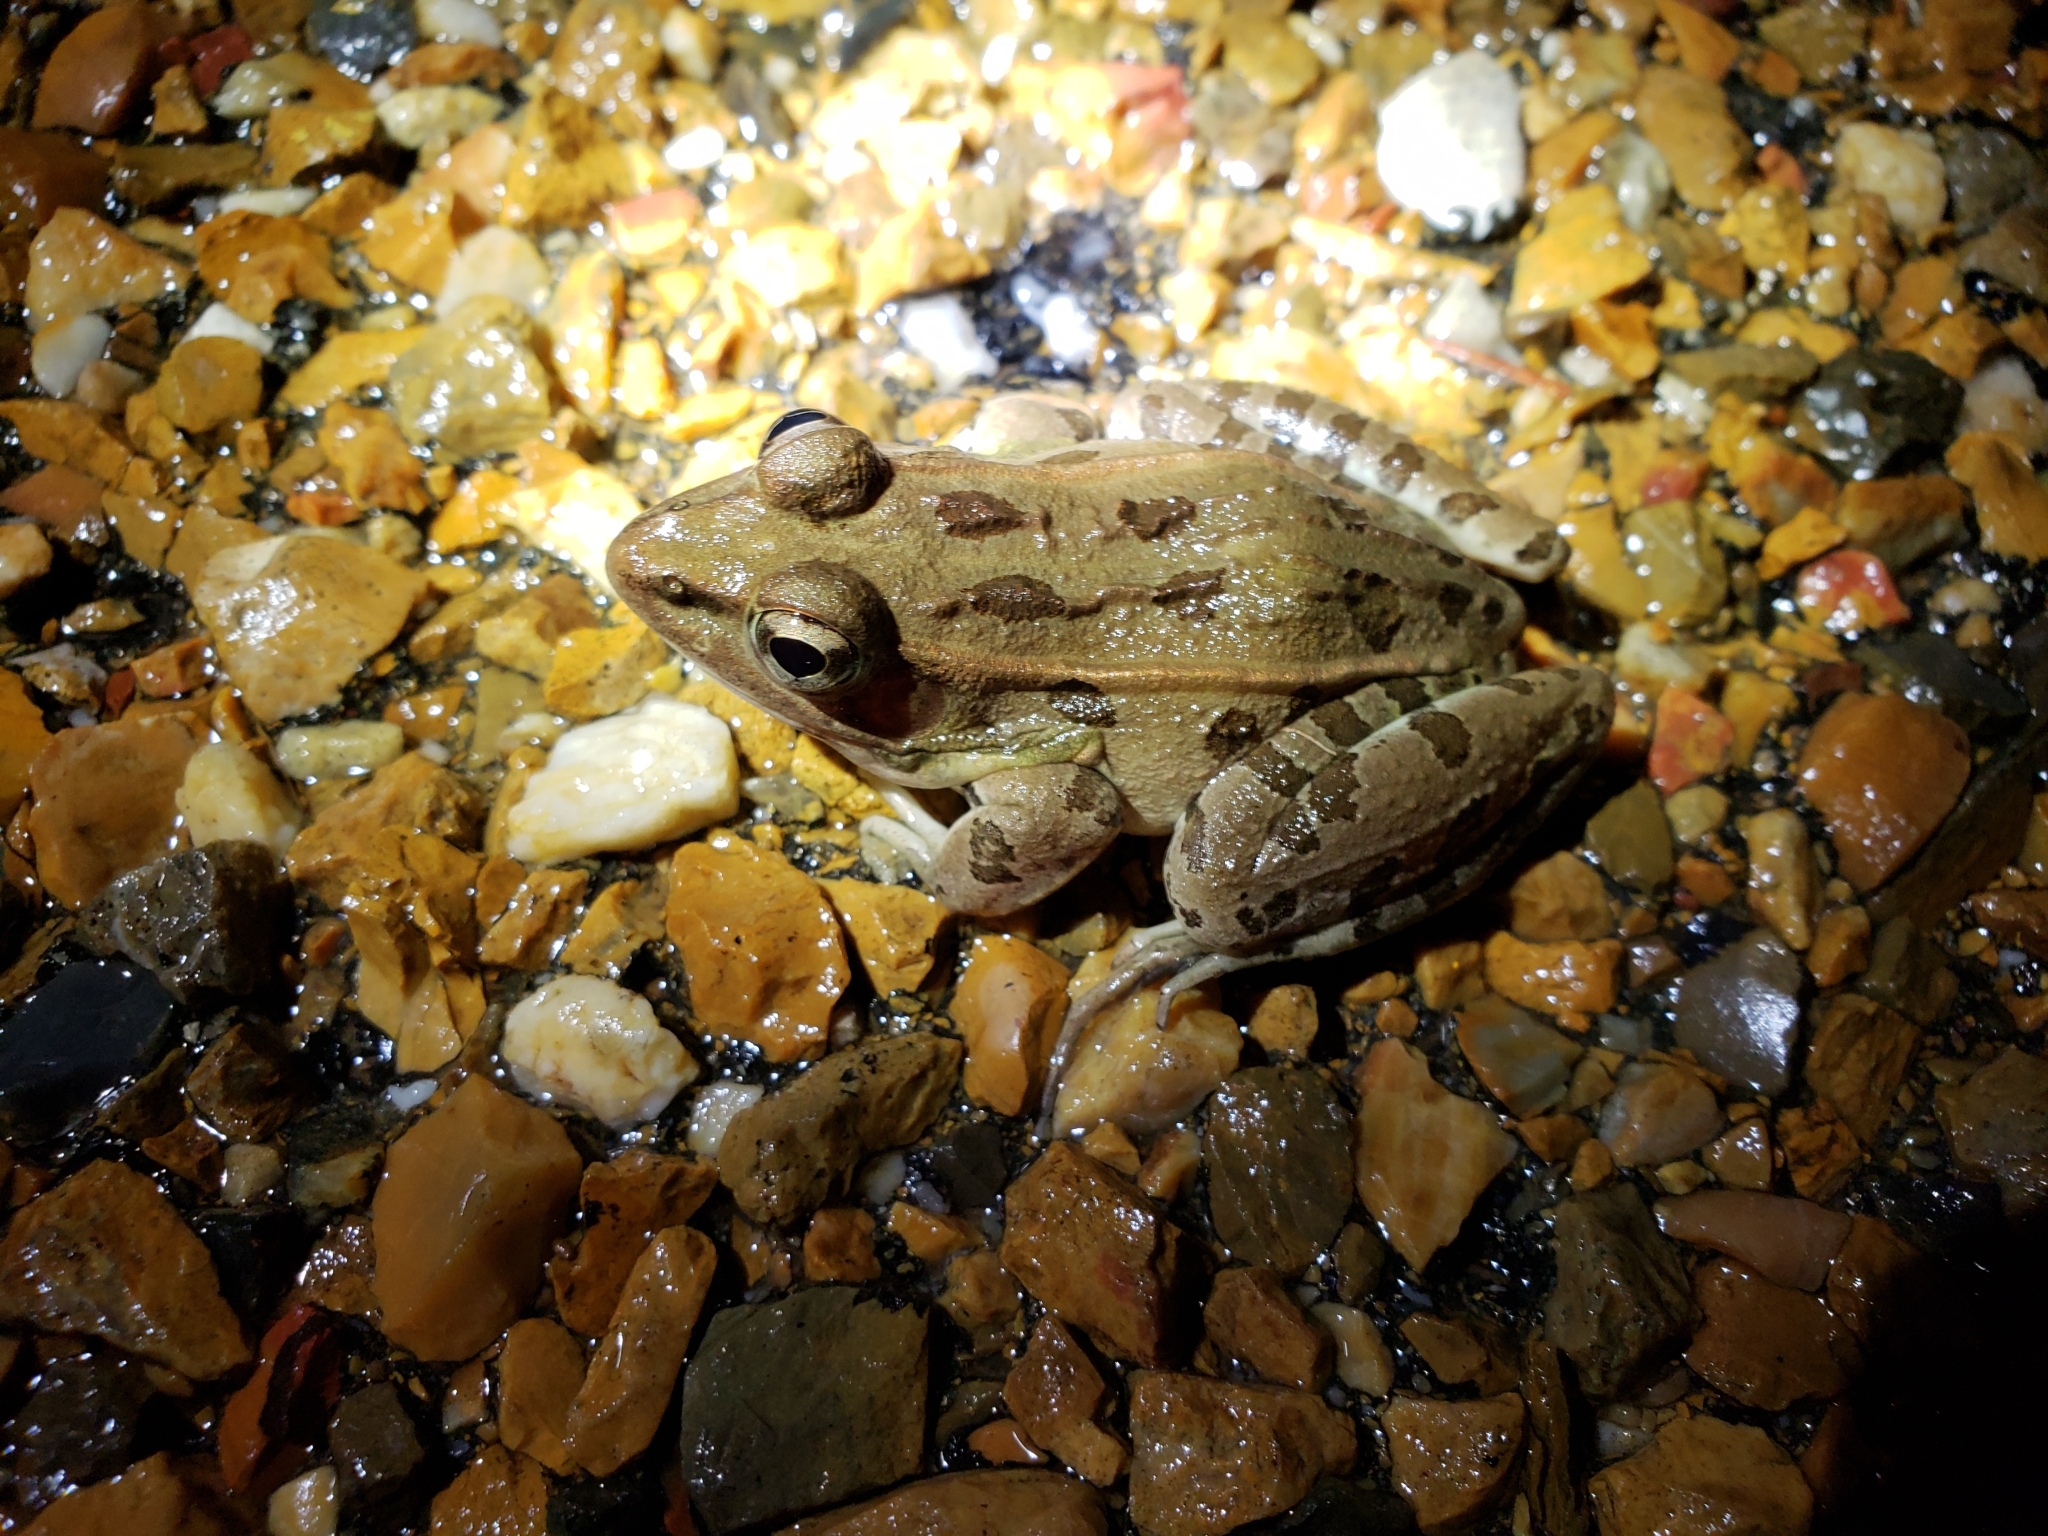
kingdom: Animalia
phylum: Chordata
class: Amphibia
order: Anura
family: Ranidae
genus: Lithobates
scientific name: Lithobates sphenocephalus
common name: Southern leopard frog
